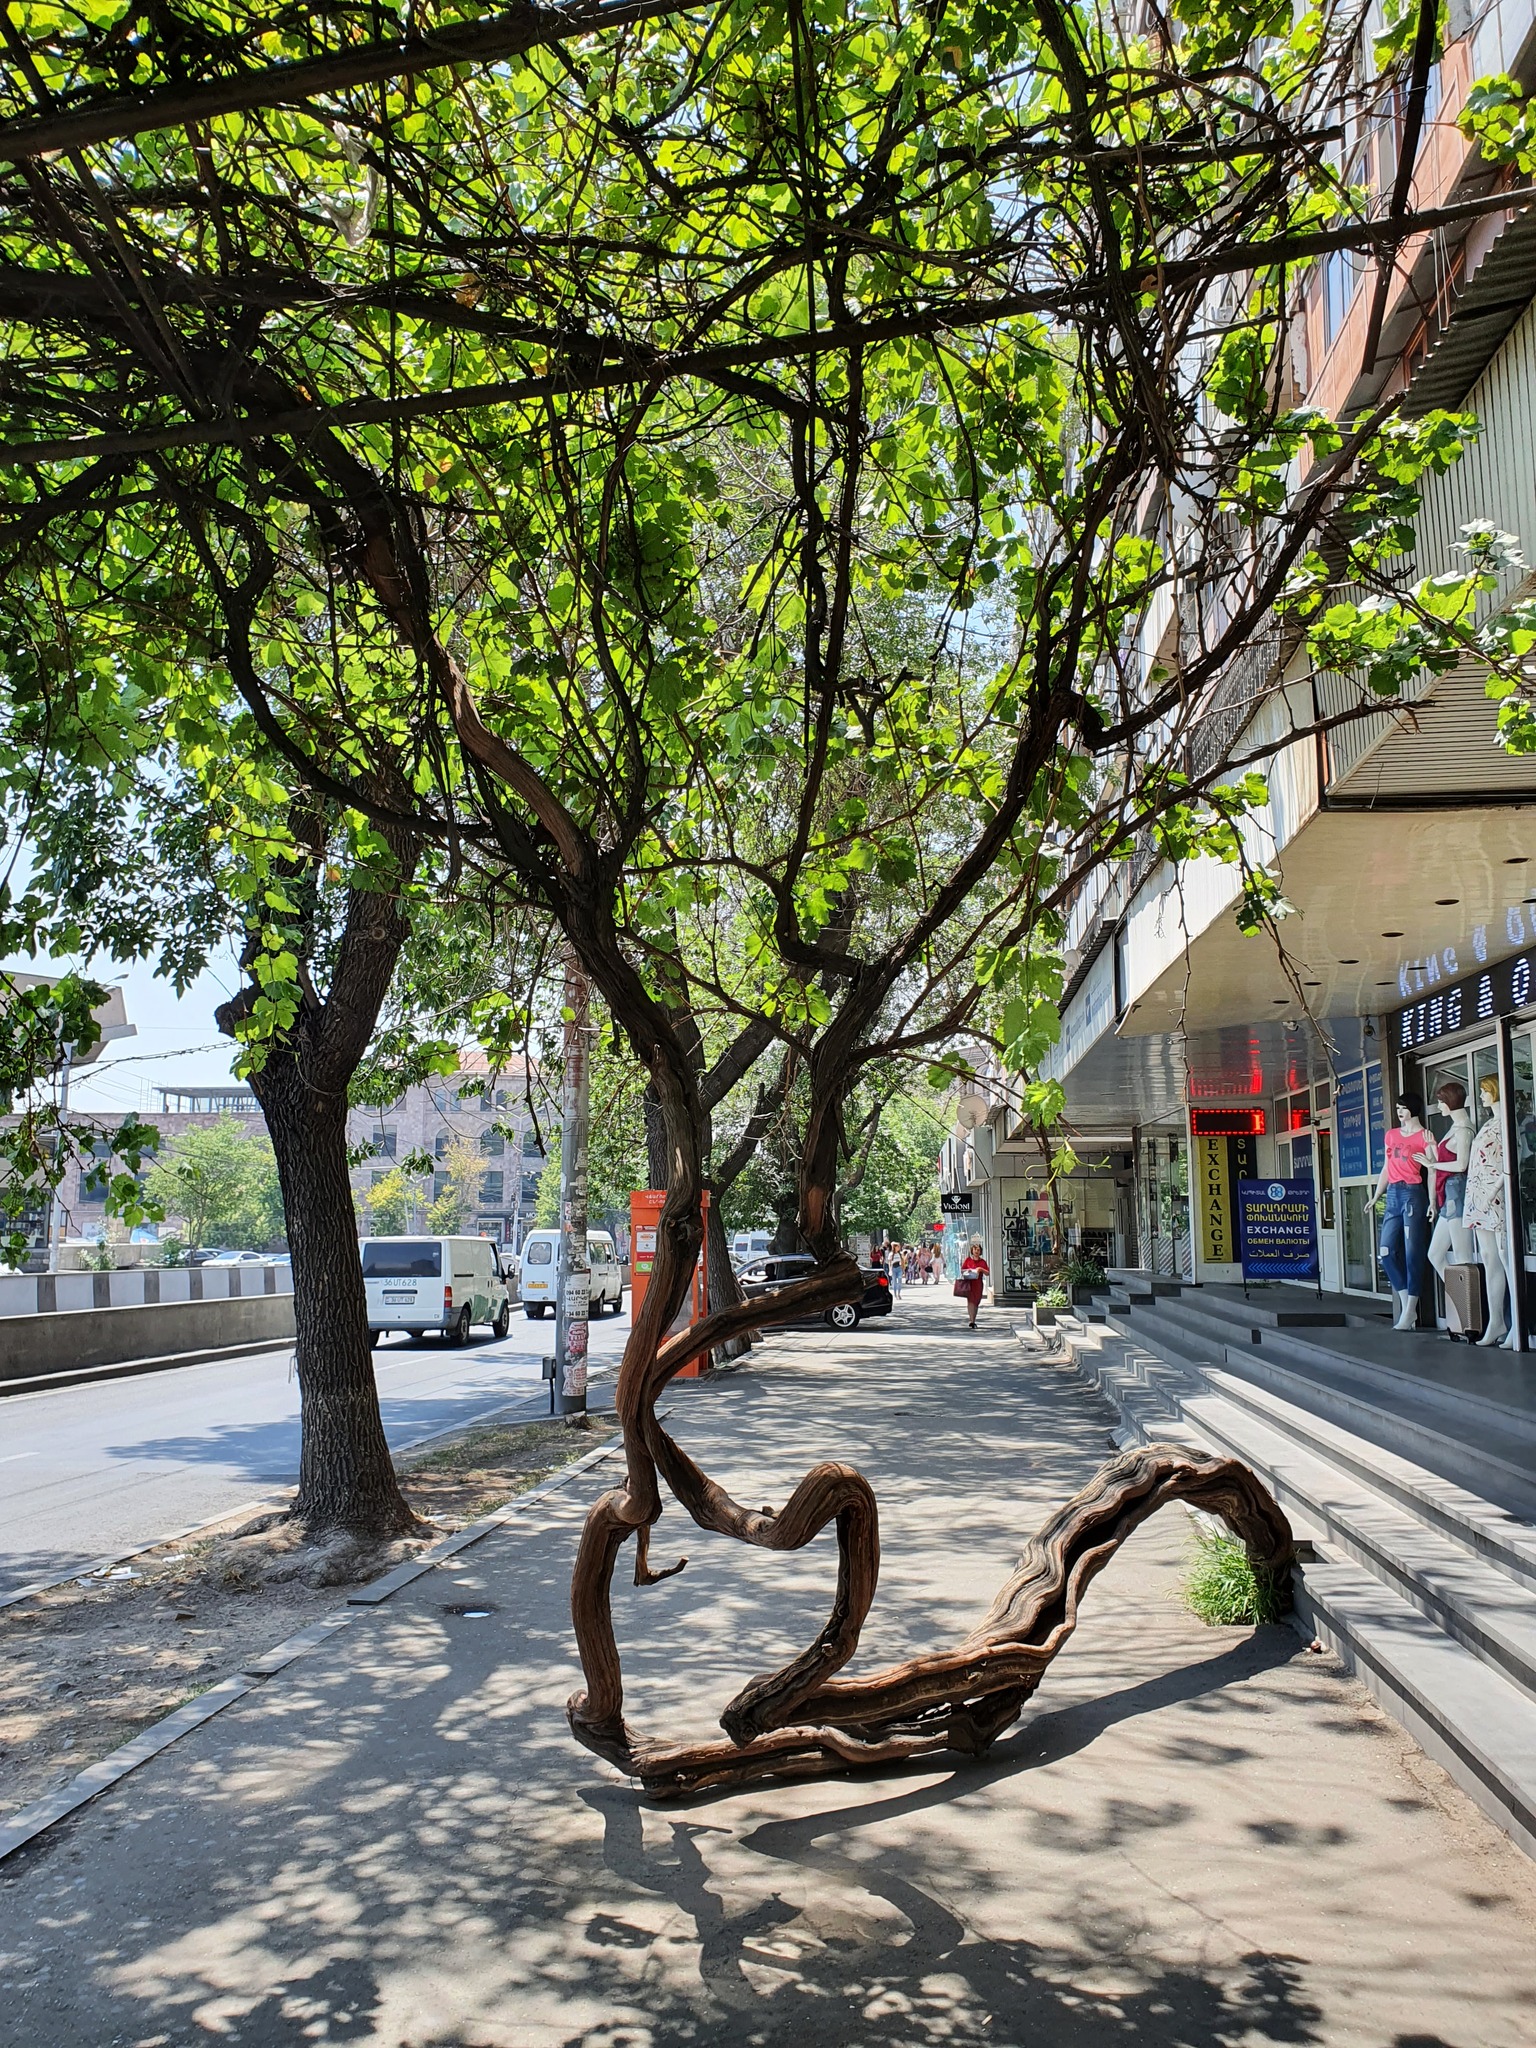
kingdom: Plantae
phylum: Tracheophyta
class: Magnoliopsida
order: Vitales
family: Vitaceae
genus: Vitis
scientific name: Vitis vinifera
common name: Grape-vine
